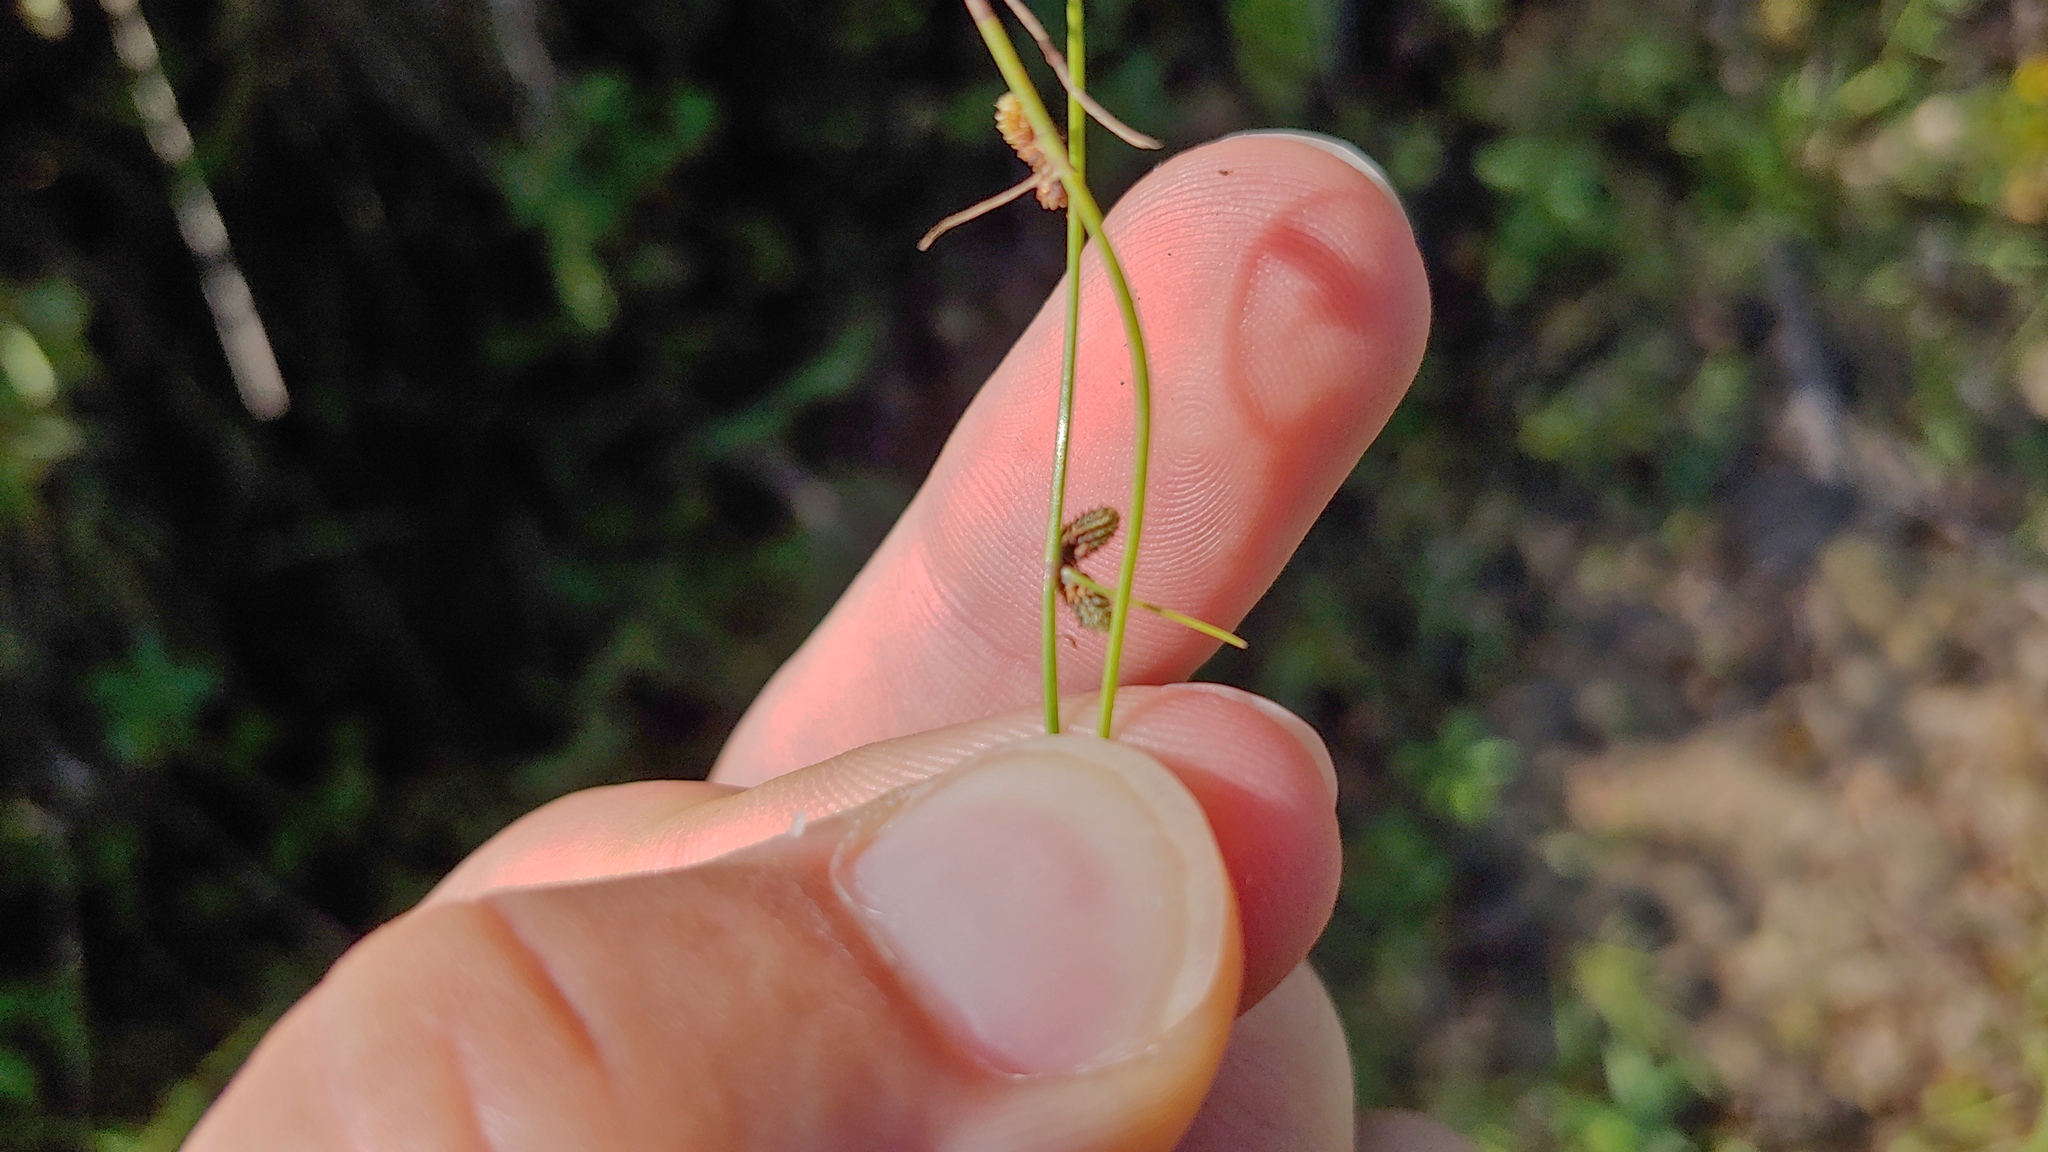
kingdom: Plantae
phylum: Tracheophyta
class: Liliopsida
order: Poales
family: Cyperaceae
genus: Cyperus
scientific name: Cyperus subsquarrosus
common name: Dwarf bulrush
